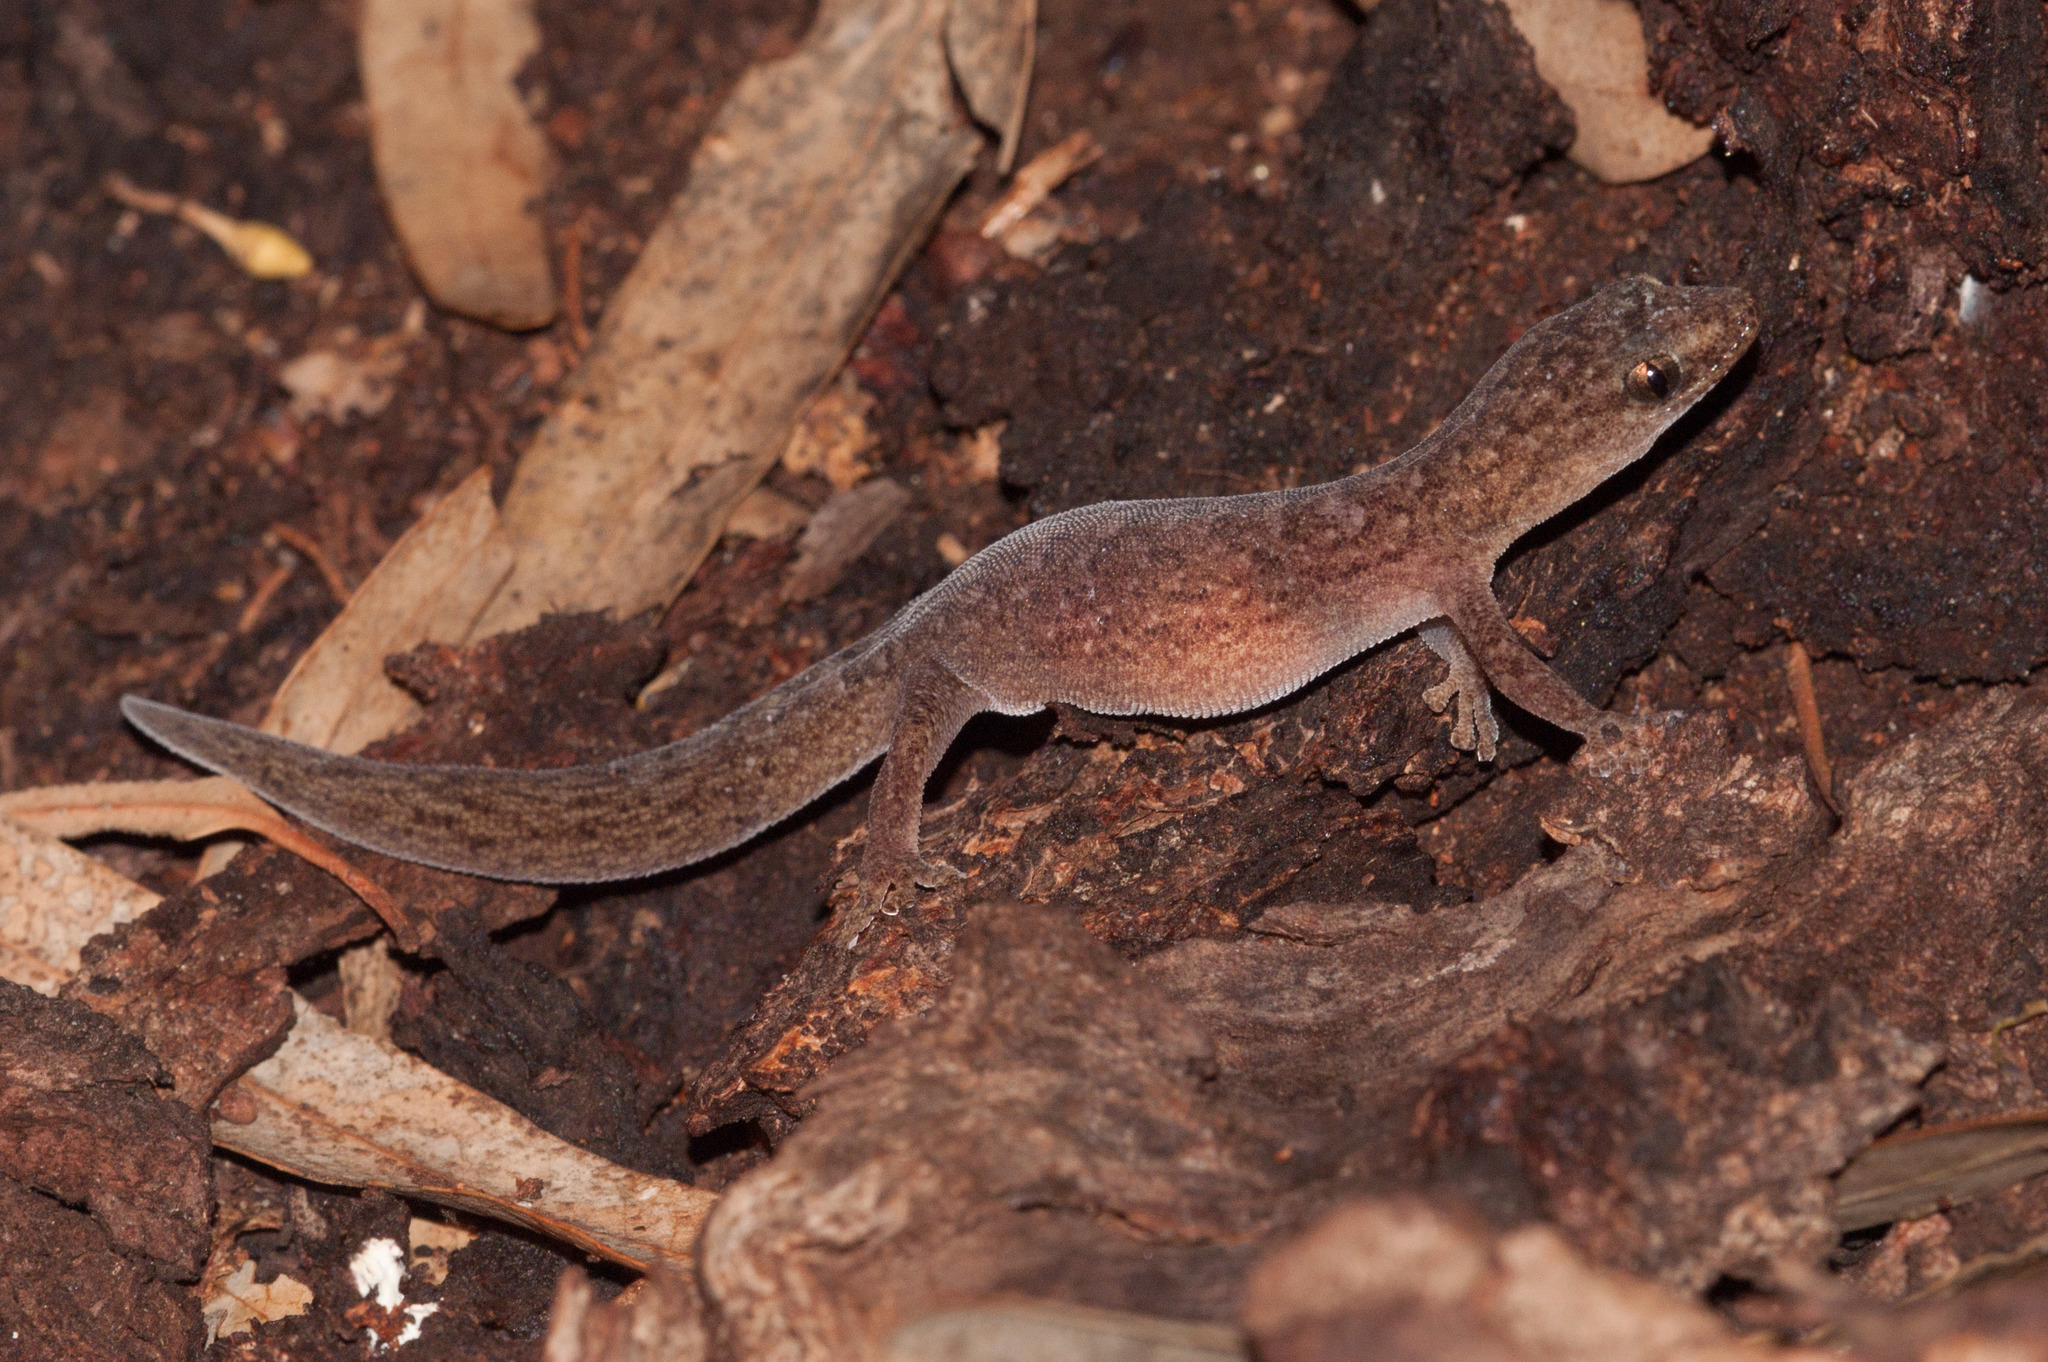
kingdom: Animalia
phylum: Chordata
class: Squamata
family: Gekkonidae
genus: Christinus
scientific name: Christinus marmoratus
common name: Marbled gecko
